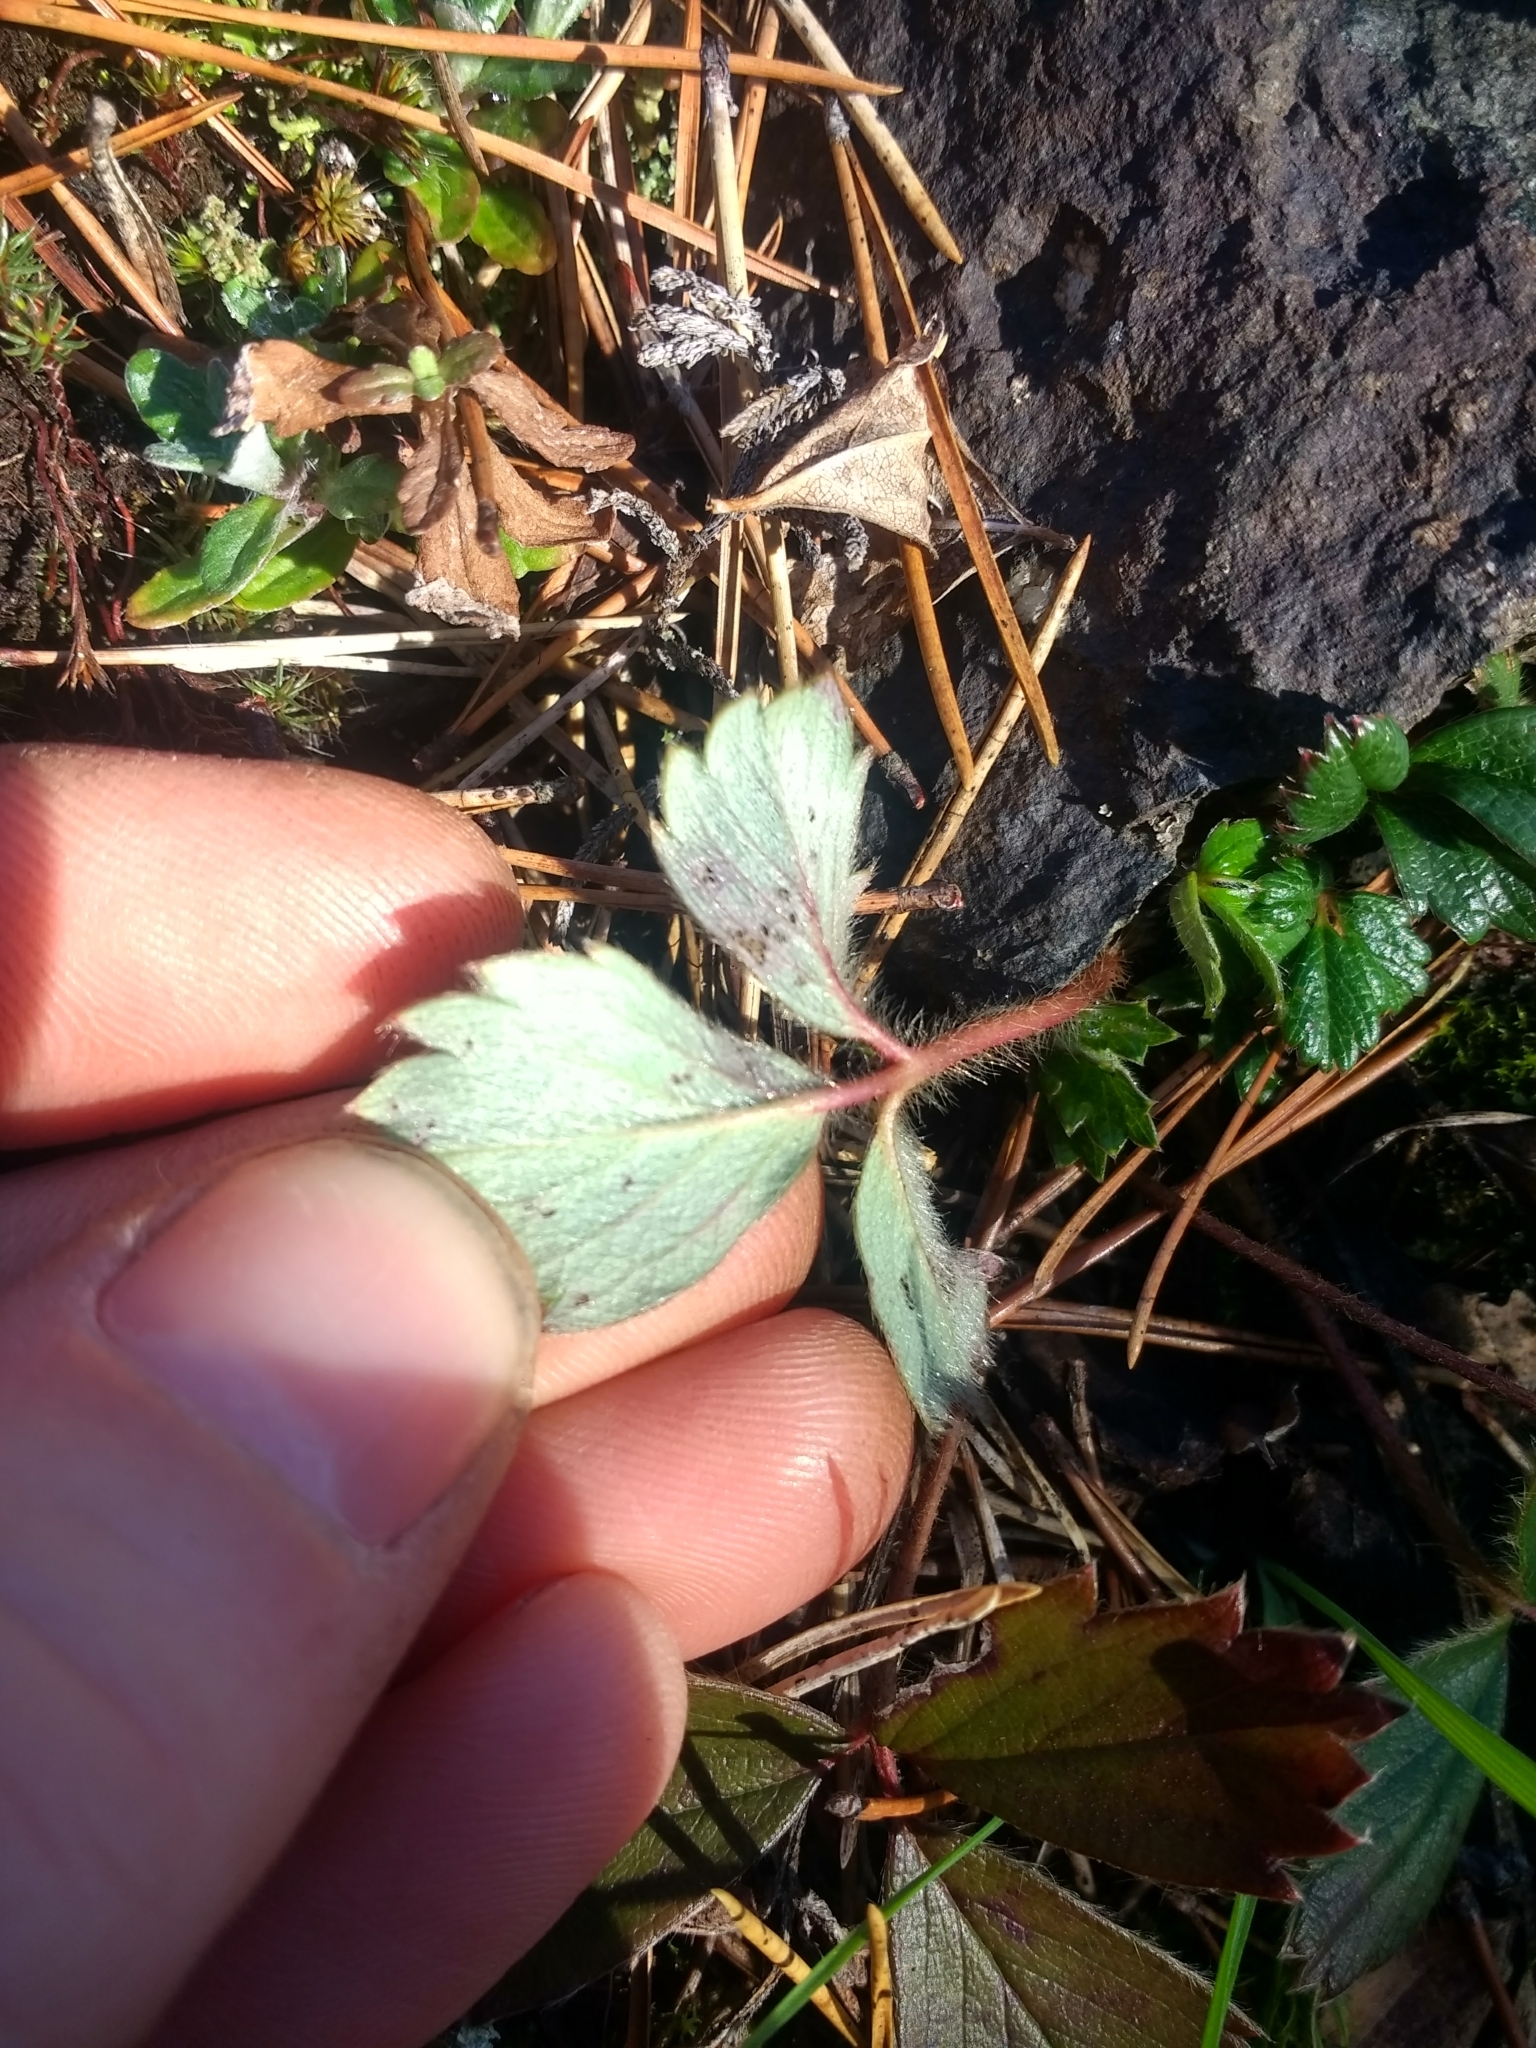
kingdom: Plantae
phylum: Tracheophyta
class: Magnoliopsida
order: Rosales
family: Rosaceae
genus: Fragaria
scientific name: Fragaria chiloensis
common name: Beach strawberry
